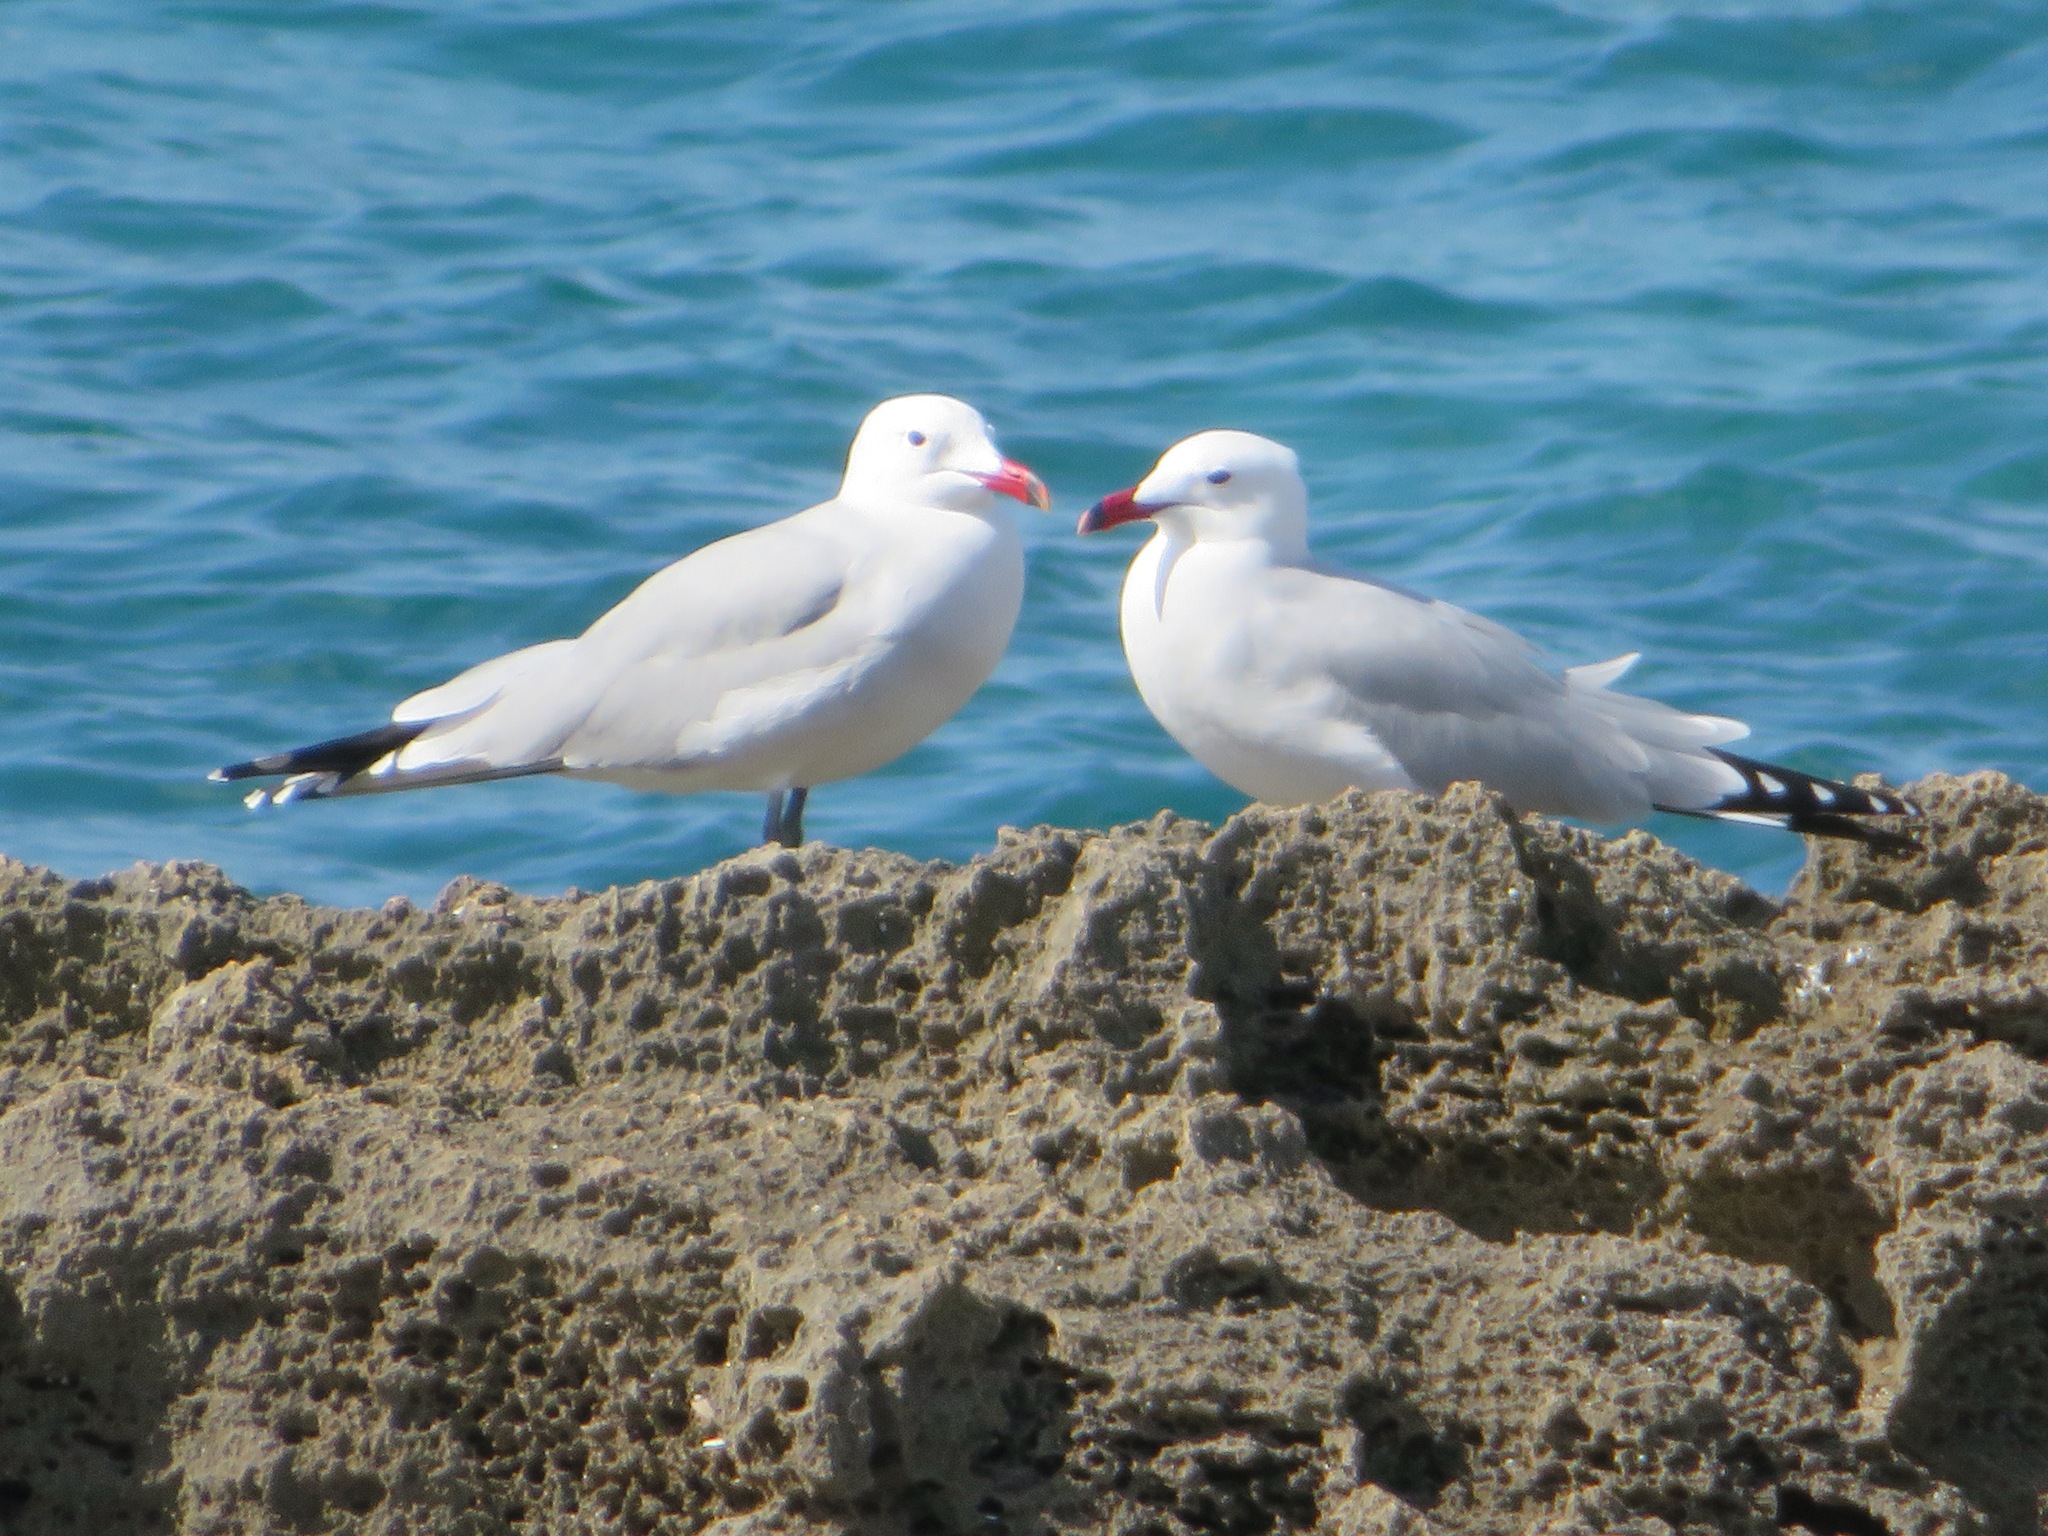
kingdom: Animalia
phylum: Chordata
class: Aves
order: Charadriiformes
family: Laridae
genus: Ichthyaetus
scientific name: Ichthyaetus audouinii
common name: Audouin's gull
